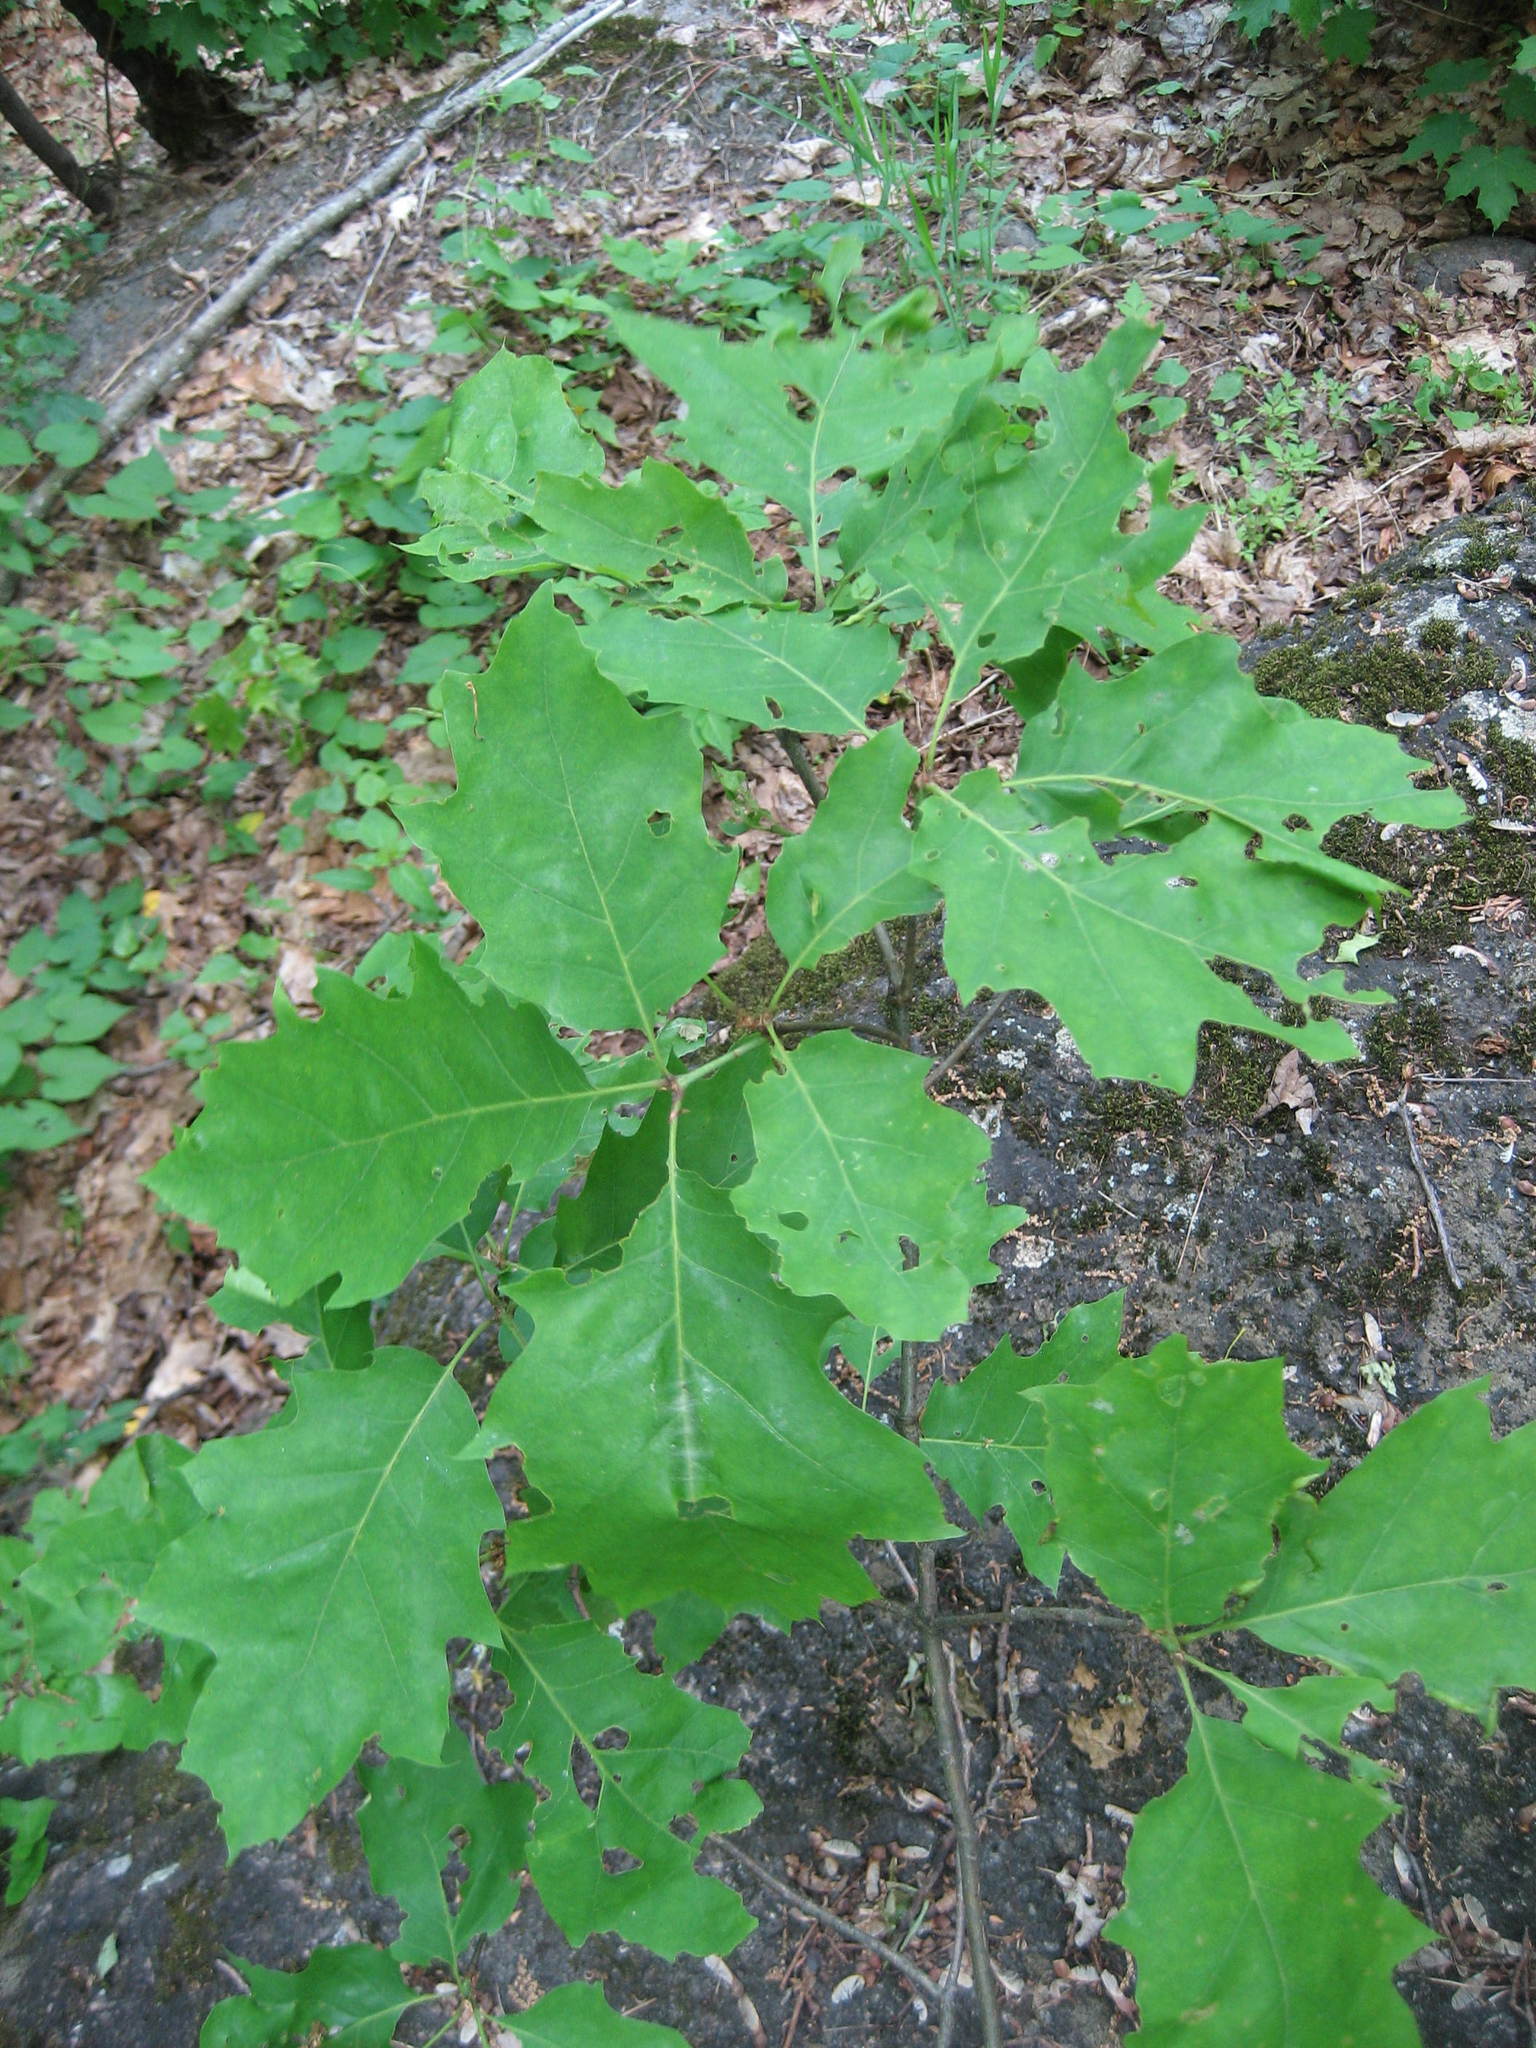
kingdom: Plantae
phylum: Tracheophyta
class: Magnoliopsida
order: Fagales
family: Fagaceae
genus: Quercus
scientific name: Quercus rubra
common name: Red oak
